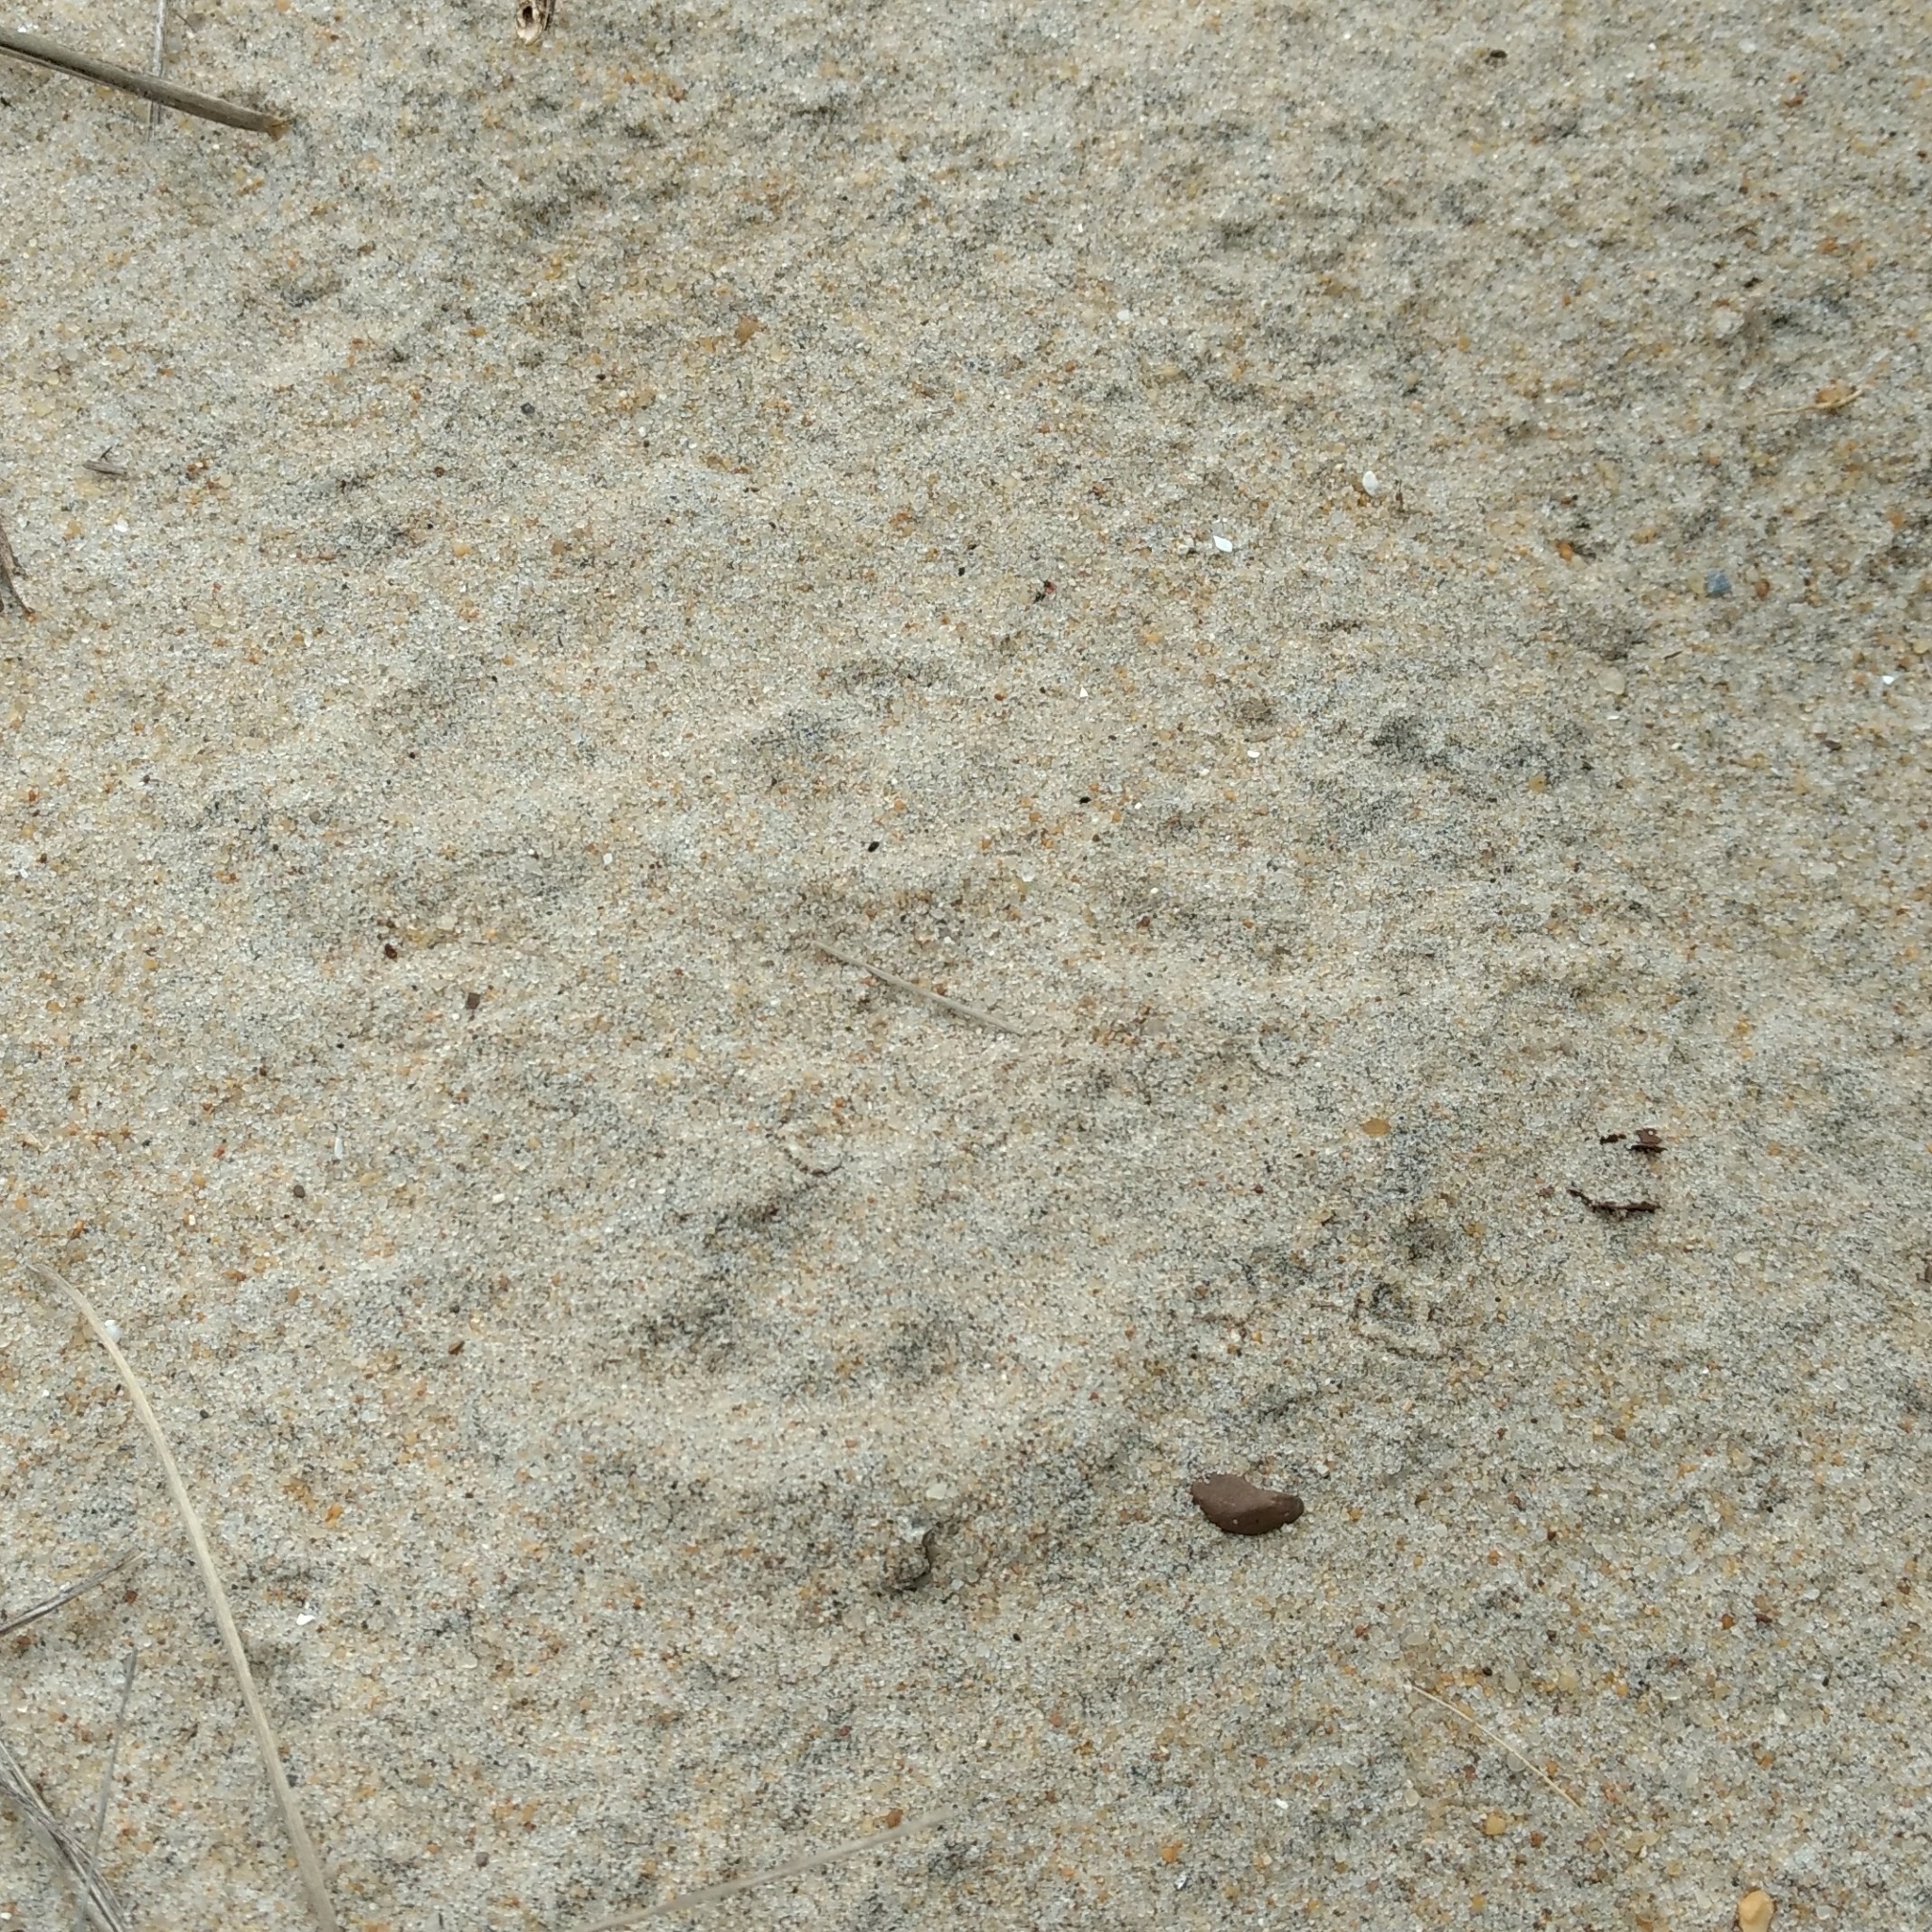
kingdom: Animalia
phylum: Chordata
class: Mammalia
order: Lagomorpha
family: Leporidae
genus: Sylvilagus
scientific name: Sylvilagus floridanus
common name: Eastern cottontail
